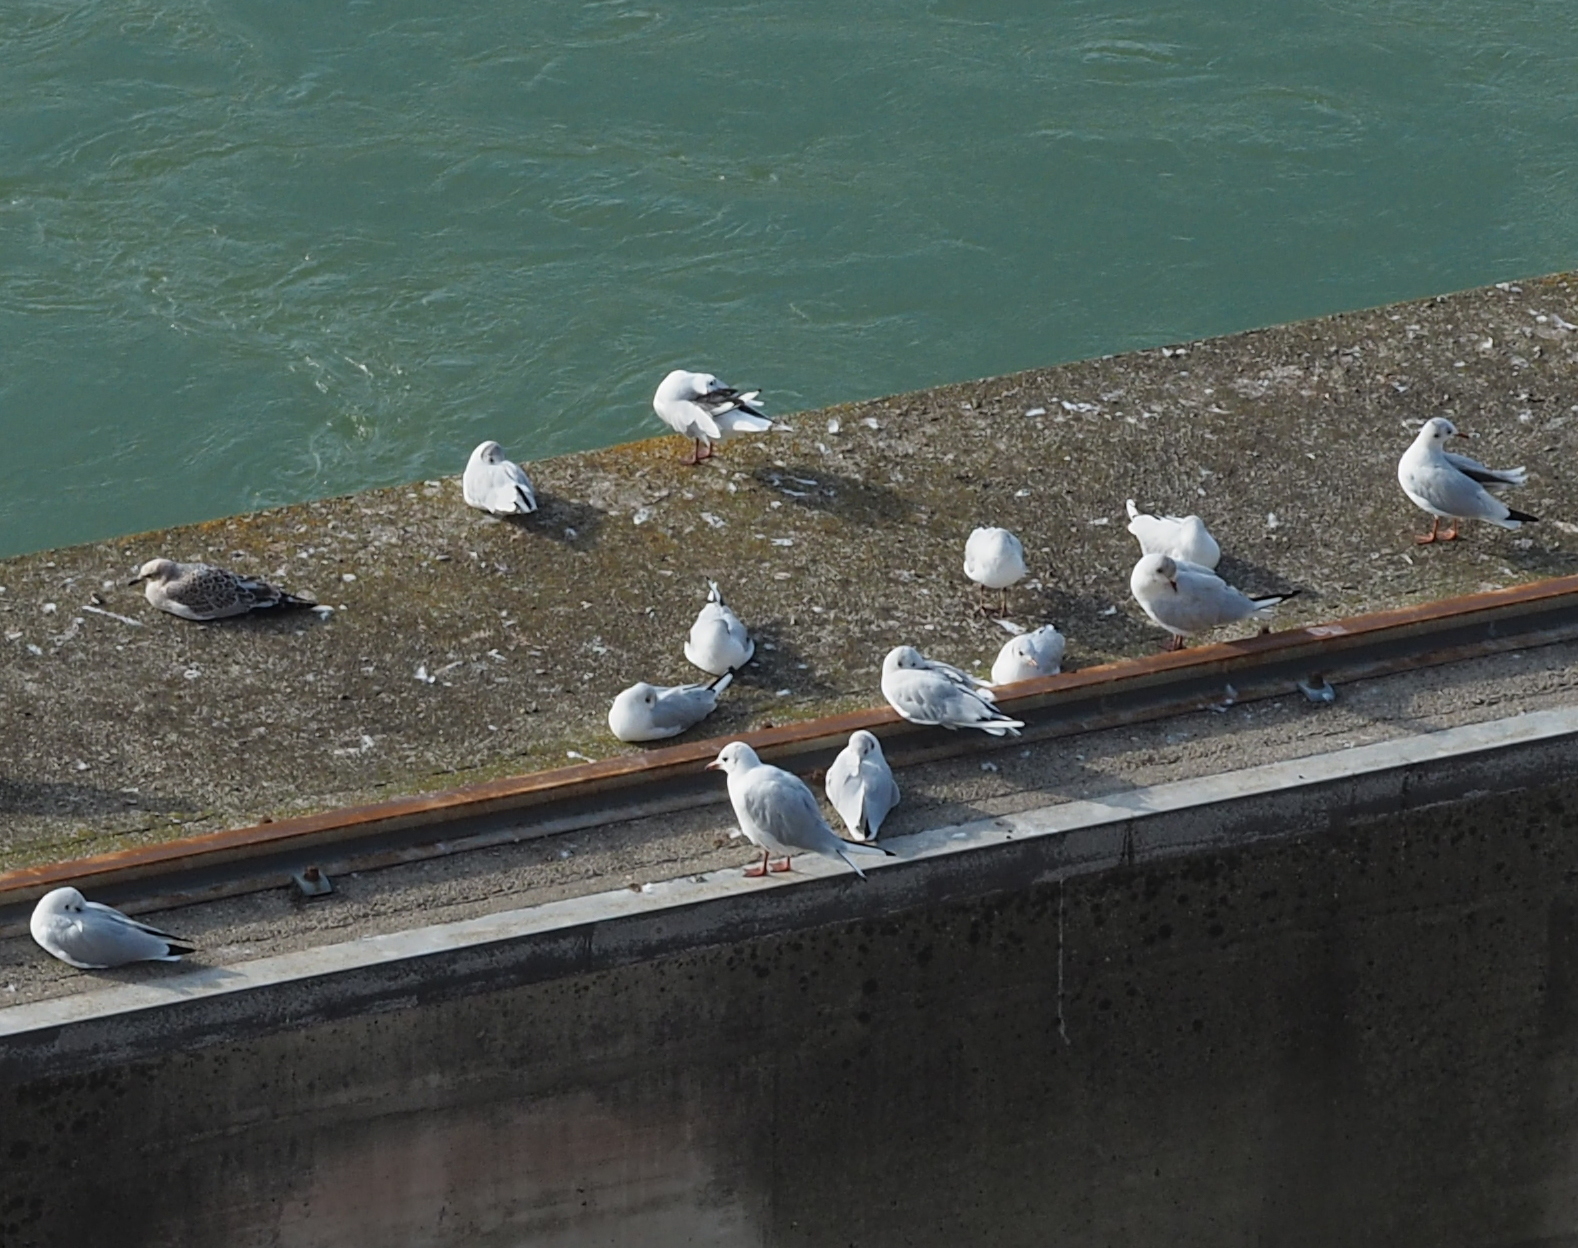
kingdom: Animalia
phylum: Chordata
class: Aves
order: Charadriiformes
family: Laridae
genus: Chroicocephalus
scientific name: Chroicocephalus ridibundus
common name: Black-headed gull
